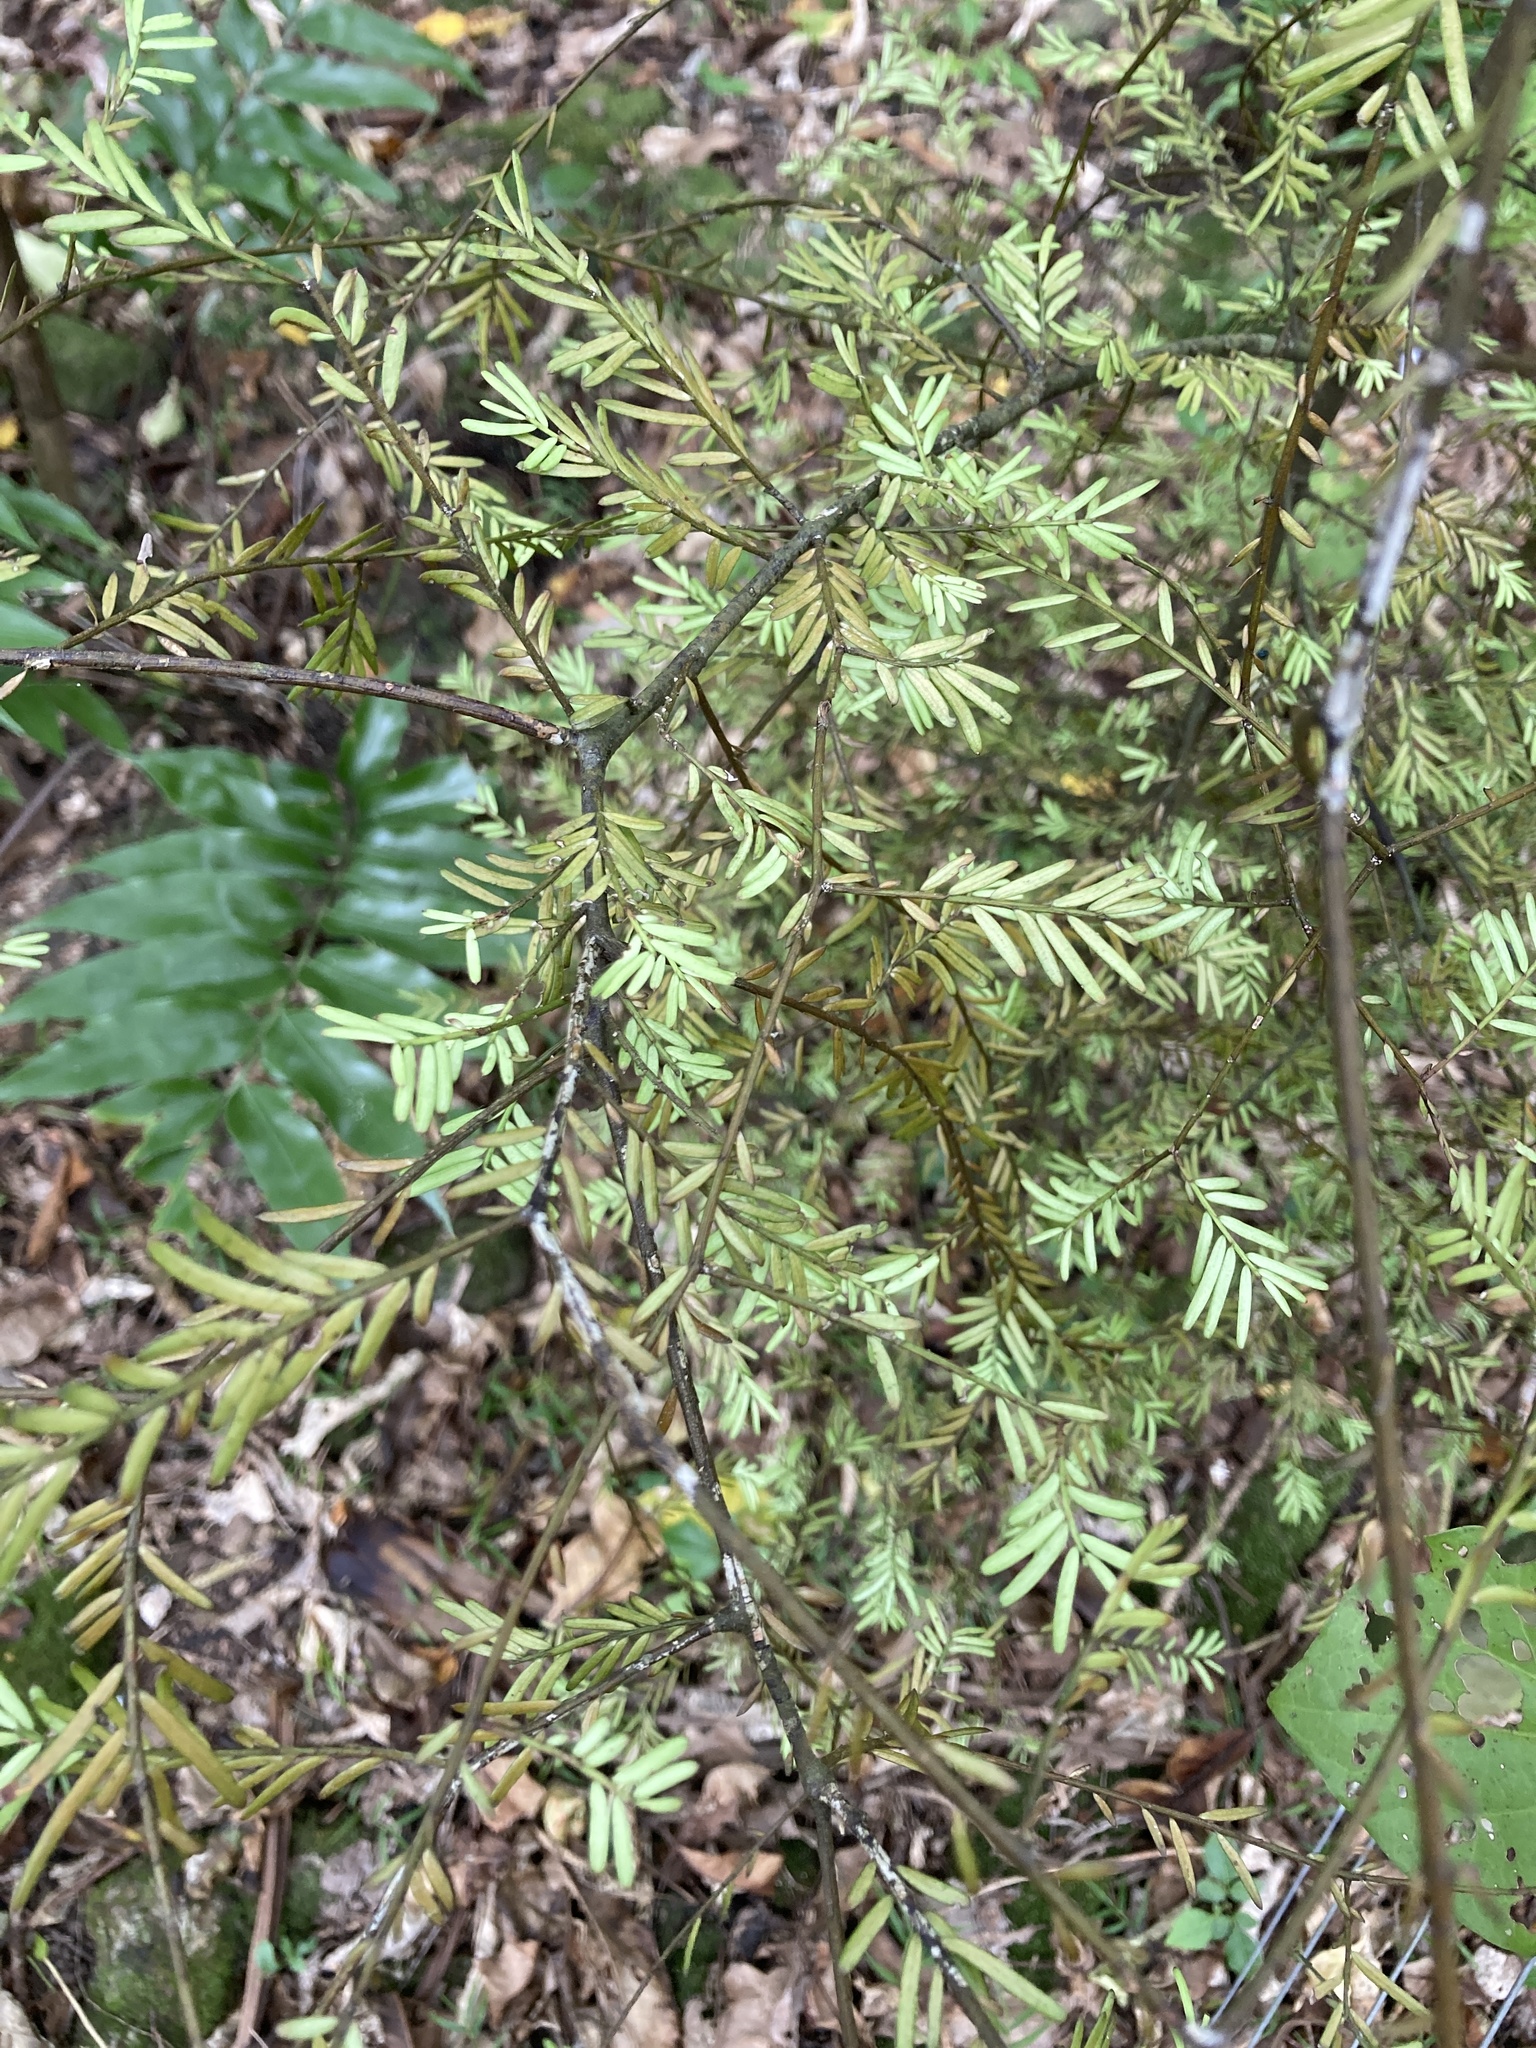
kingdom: Plantae
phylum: Tracheophyta
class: Pinopsida
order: Pinales
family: Podocarpaceae
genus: Prumnopitys
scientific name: Prumnopitys taxifolia
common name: Matai
